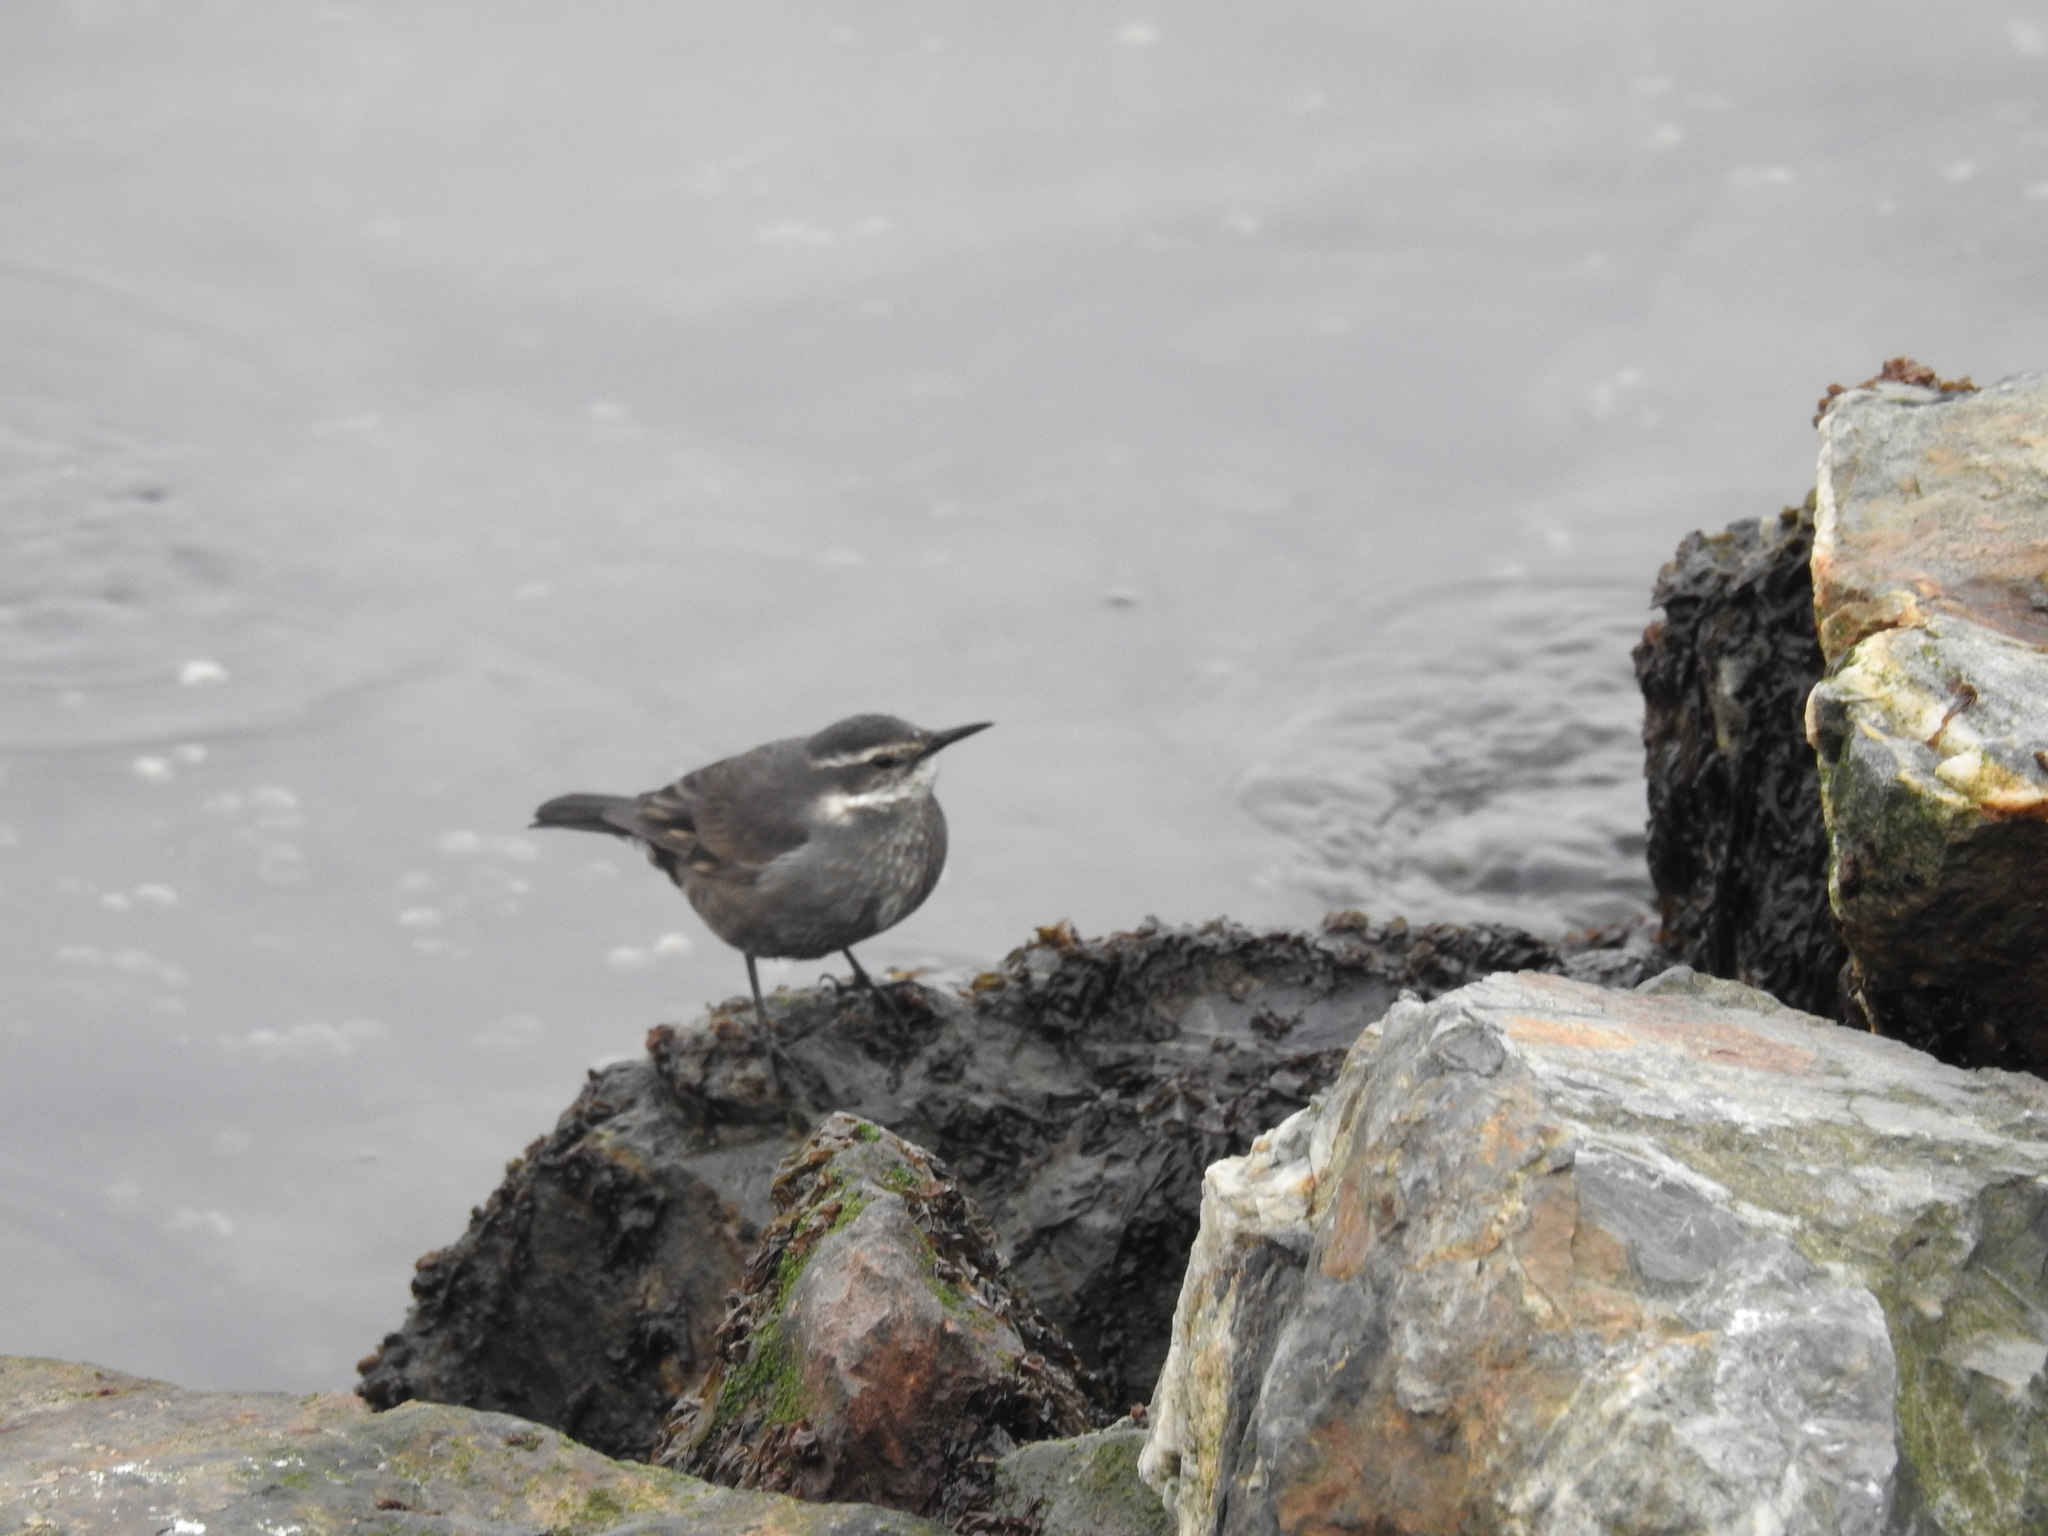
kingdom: Animalia
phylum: Chordata
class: Aves
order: Passeriformes
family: Furnariidae
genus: Cinclodes
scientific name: Cinclodes oustaleti
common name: Grey-flanked cinclodes
